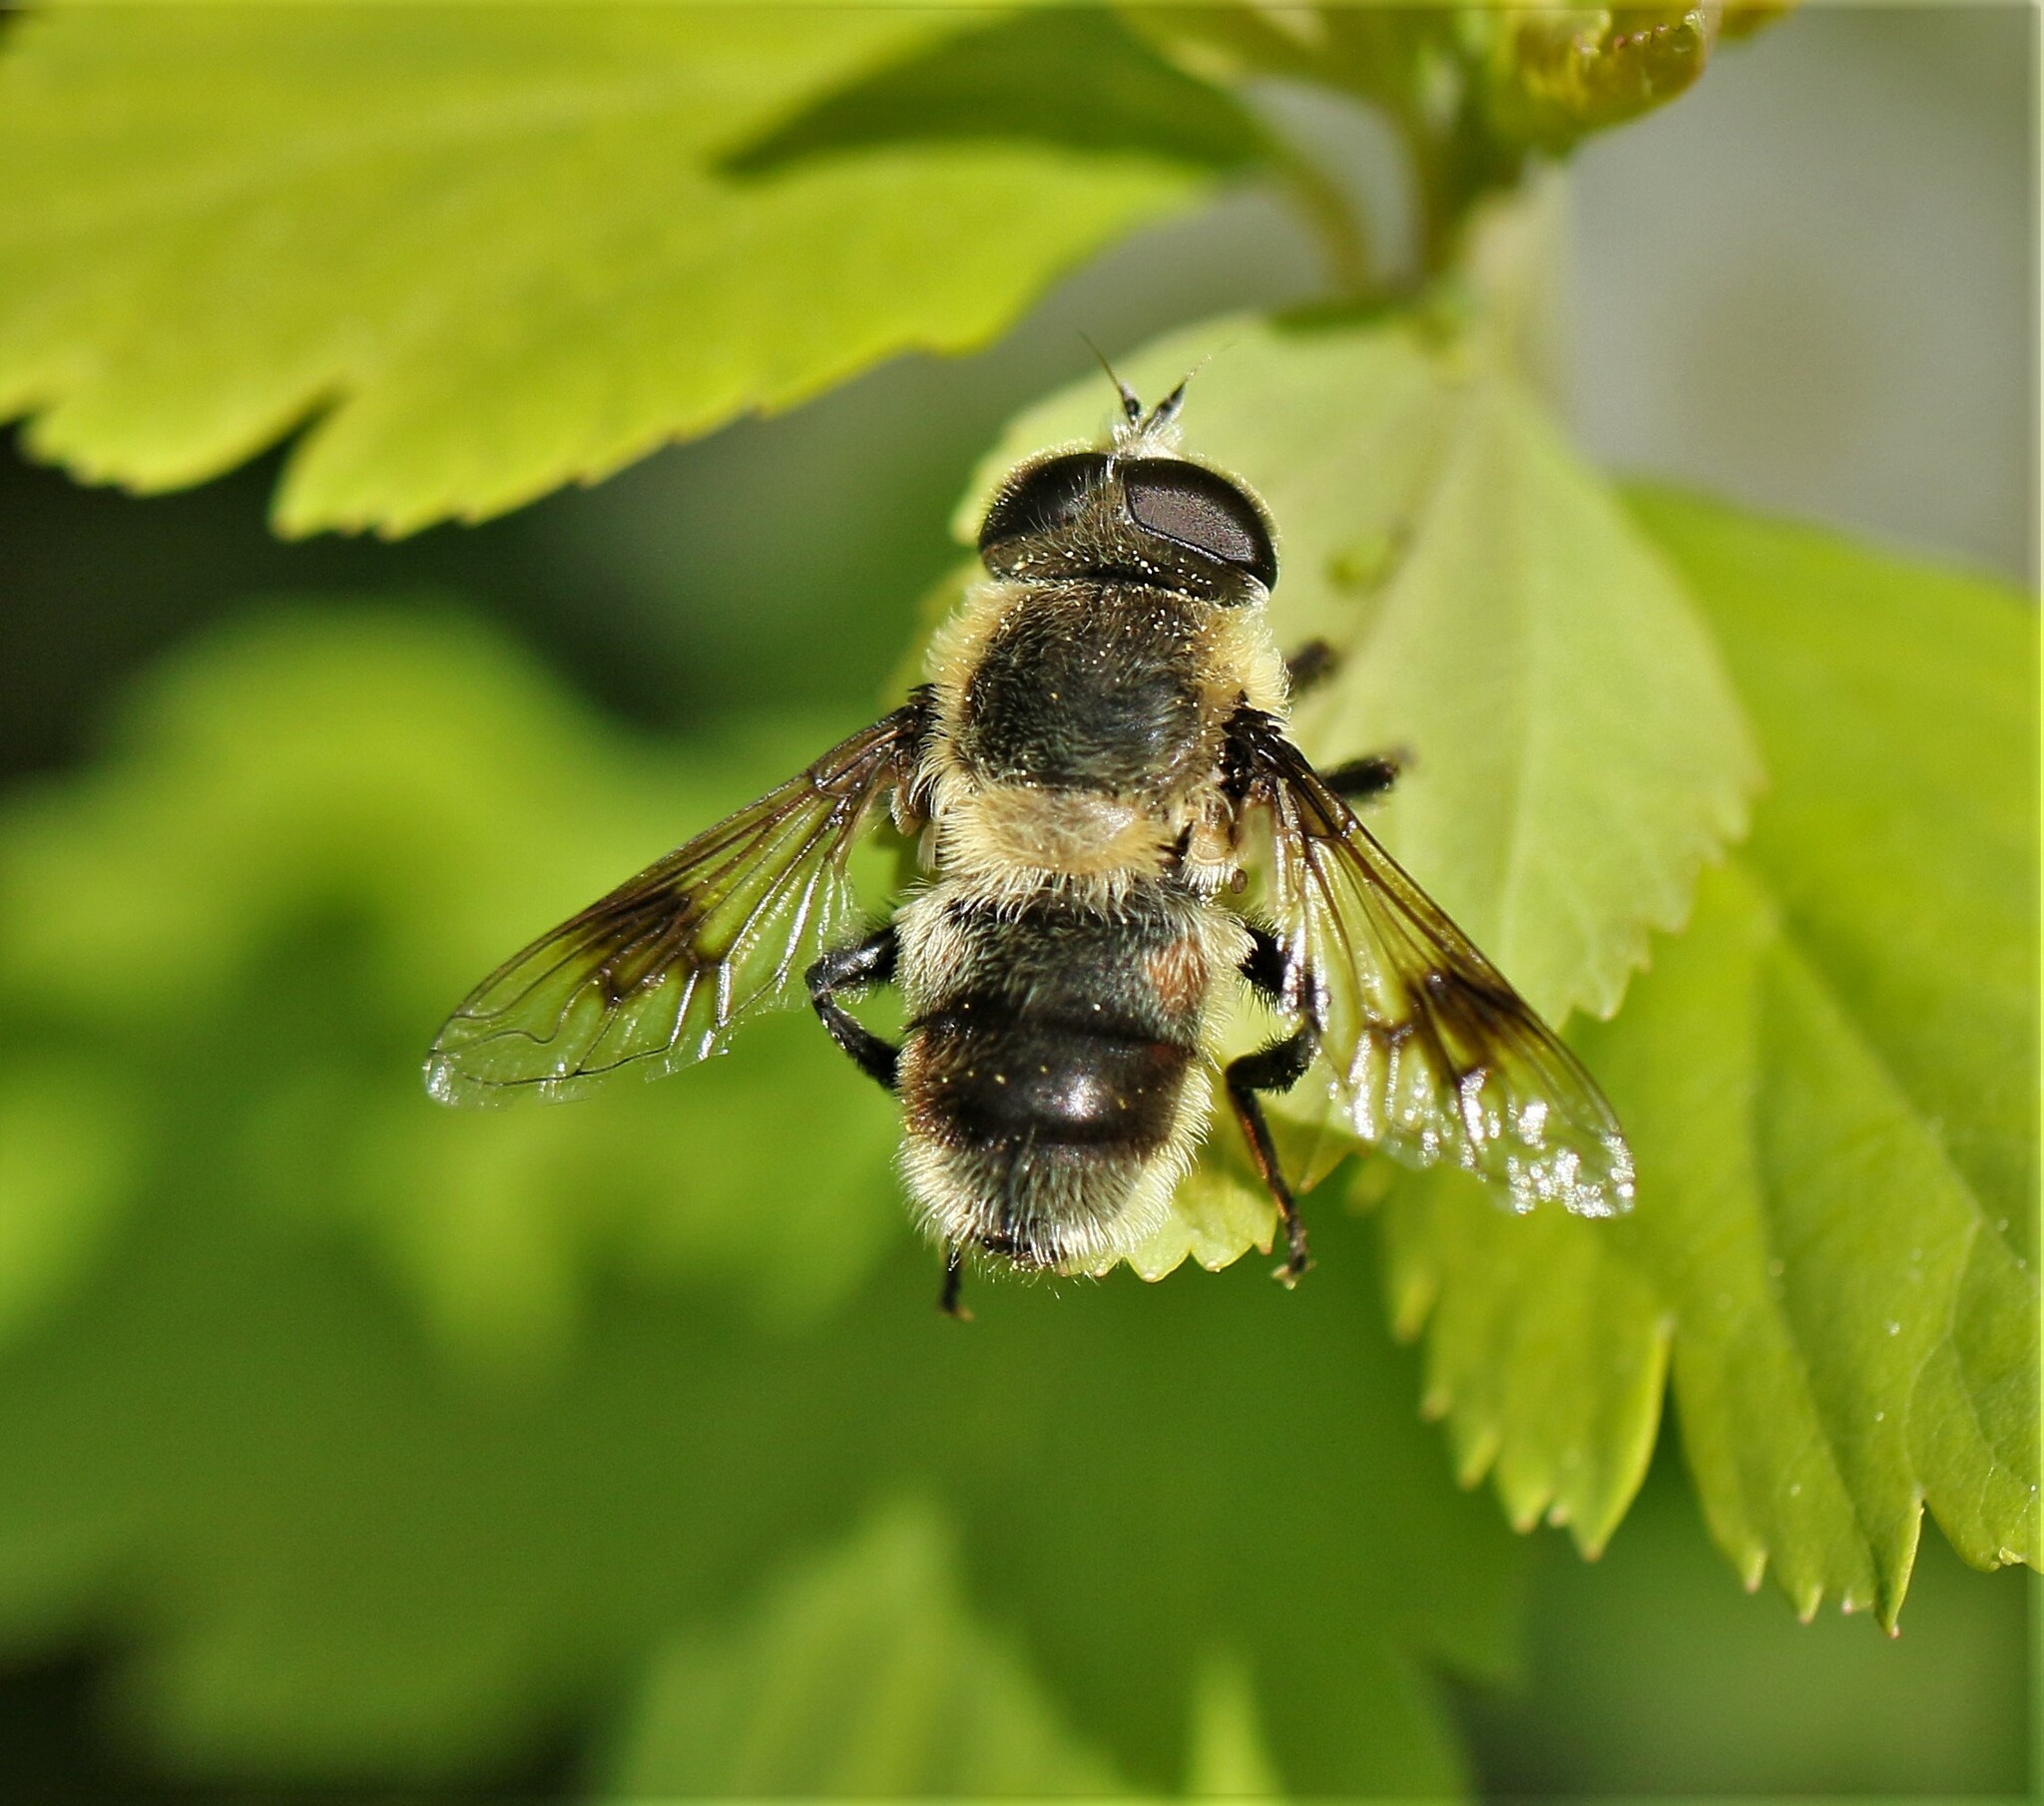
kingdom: Animalia
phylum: Arthropoda
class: Insecta
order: Diptera
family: Syrphidae
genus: Eristalis
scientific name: Eristalis anthophorina
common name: Orange-spotted drone fly
